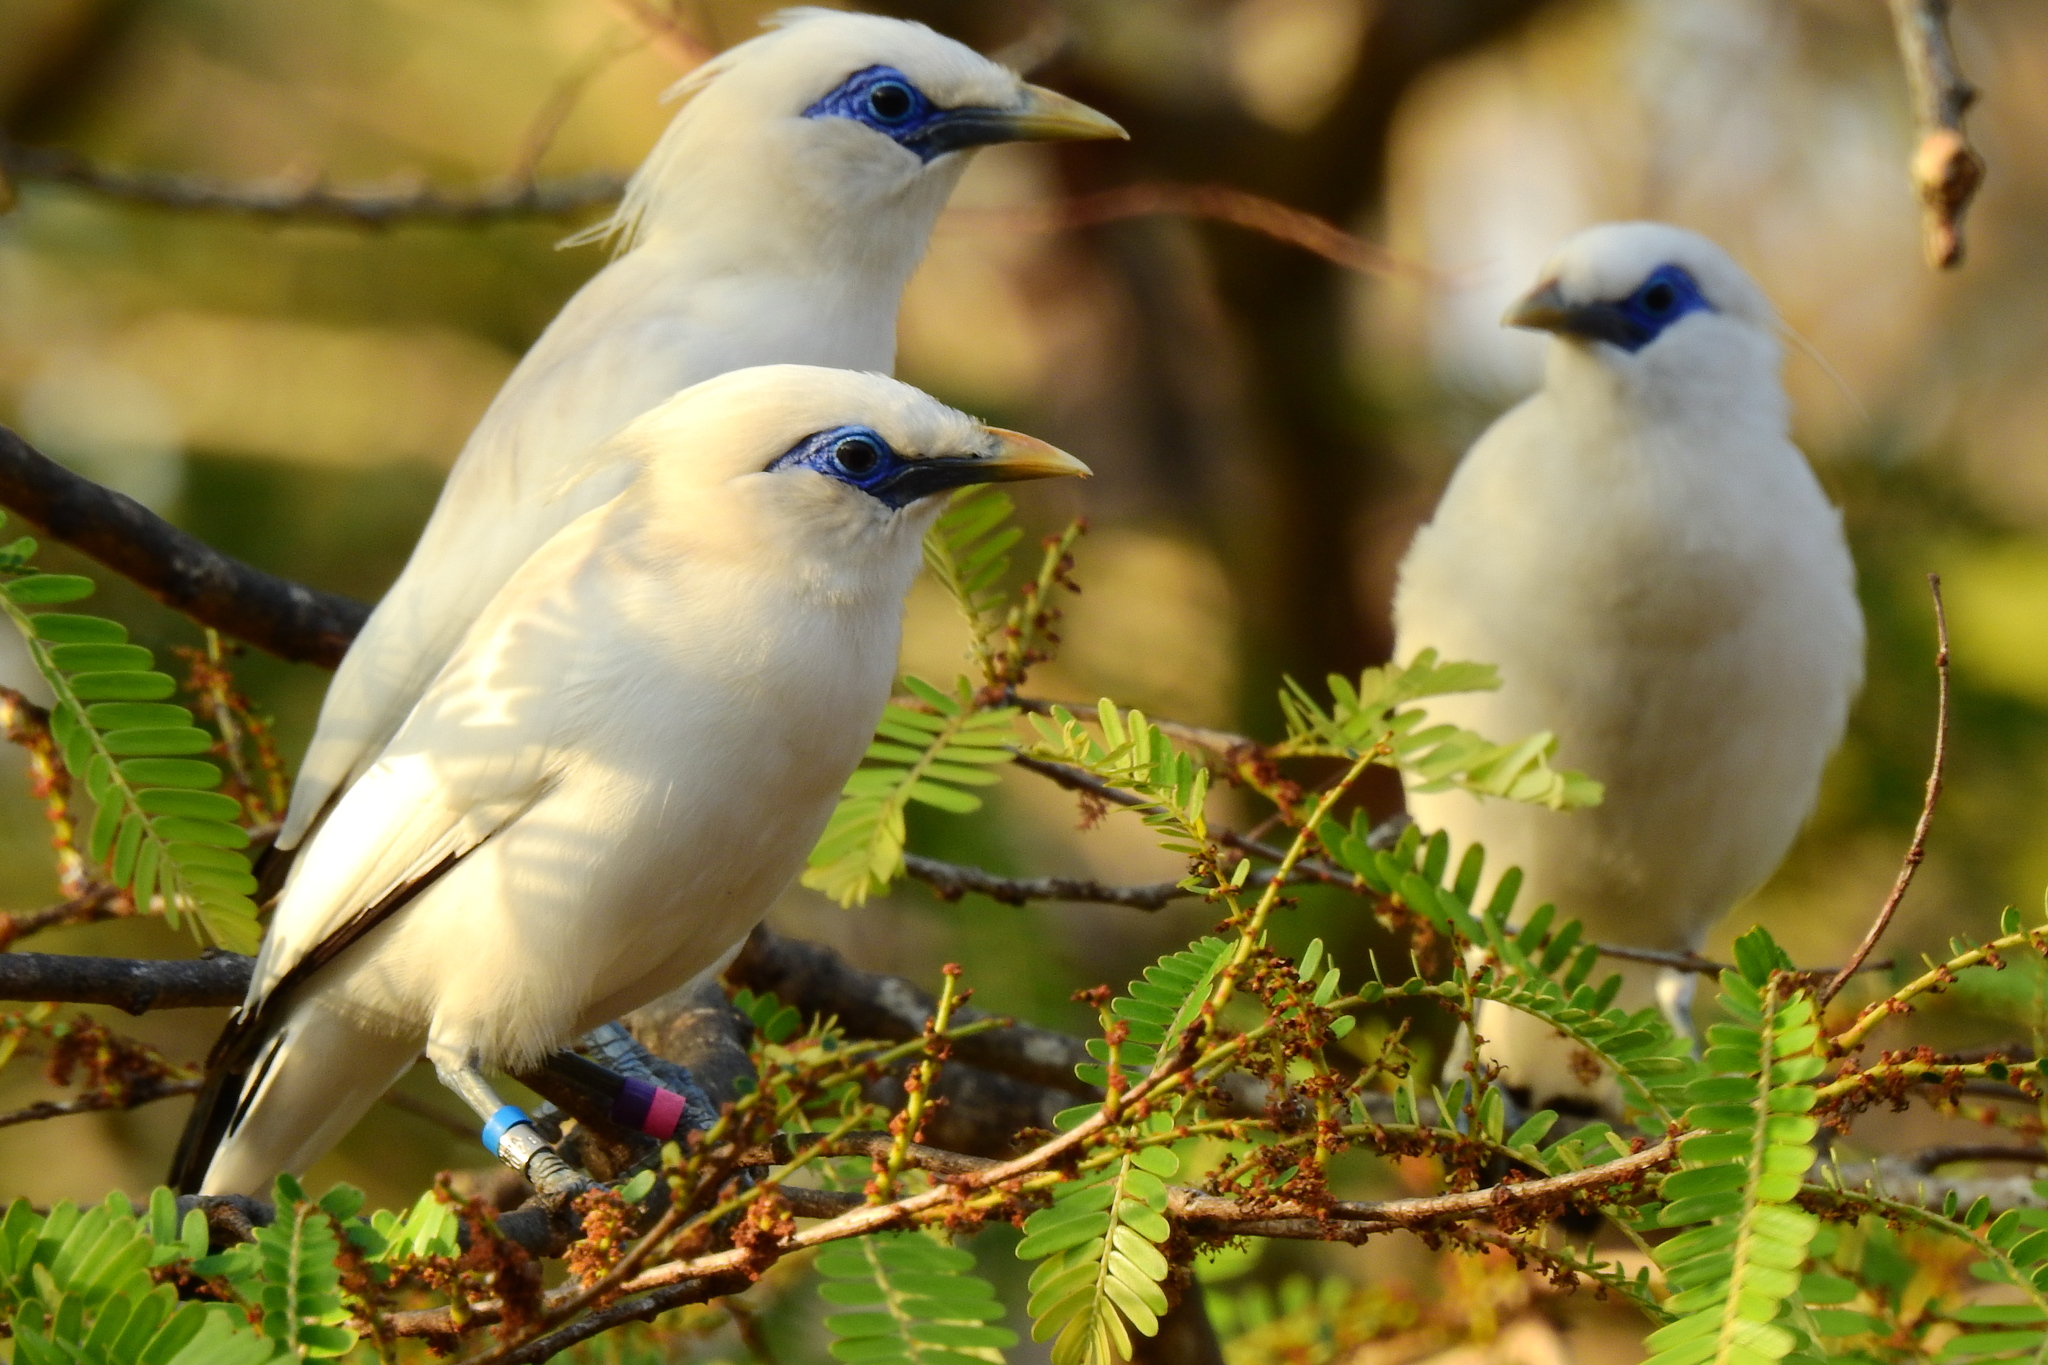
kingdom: Animalia
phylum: Chordata
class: Aves
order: Passeriformes
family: Sturnidae
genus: Leucopsar
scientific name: Leucopsar rothschildi
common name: Bali myna
